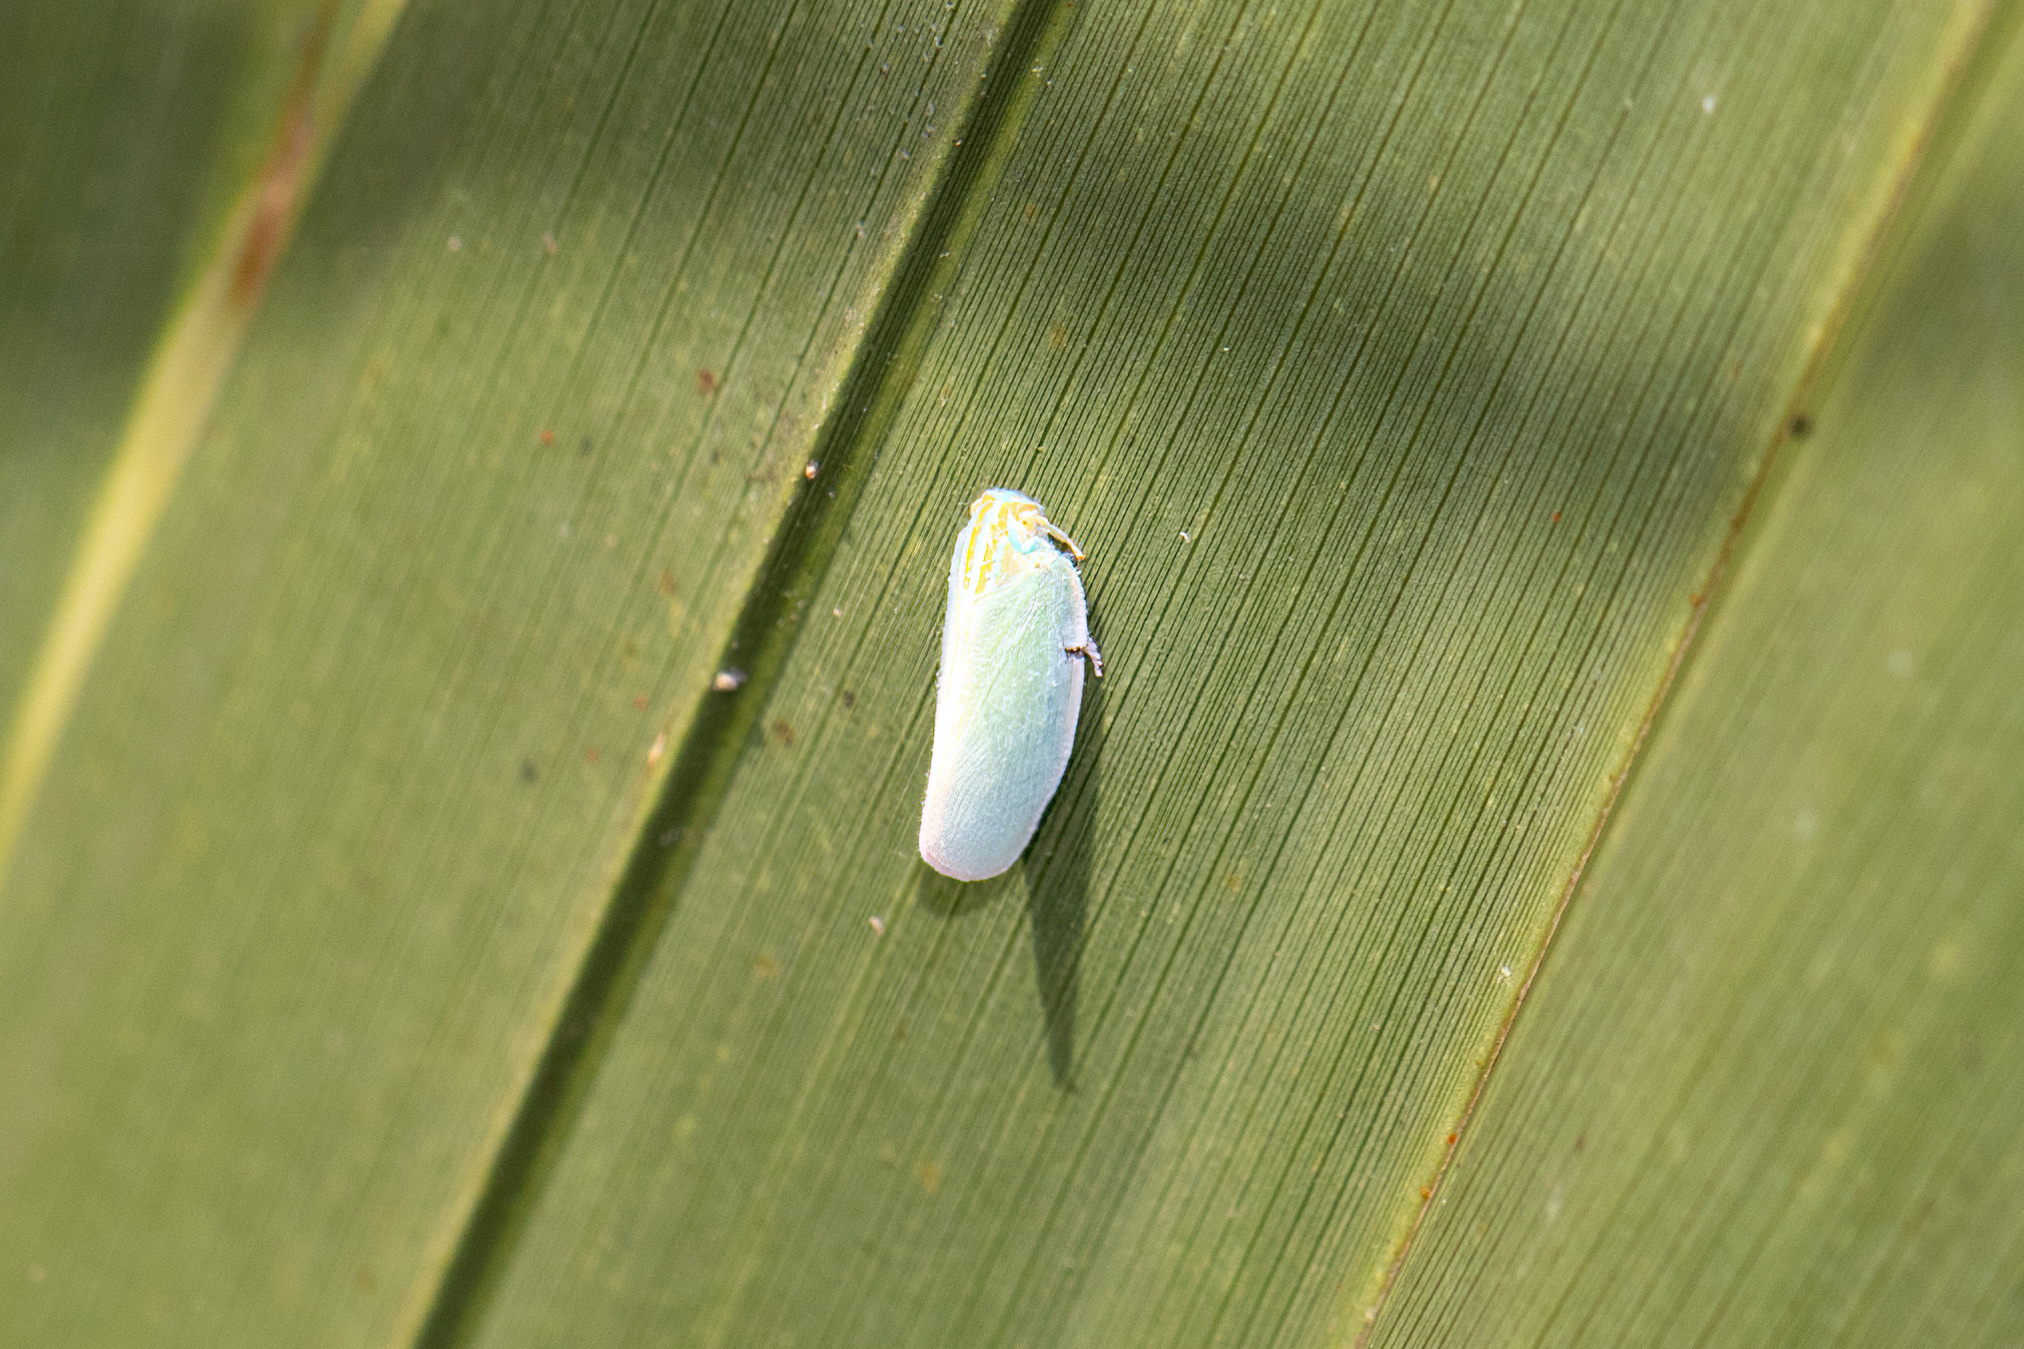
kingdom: Animalia
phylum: Arthropoda
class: Insecta
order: Hemiptera
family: Flatidae
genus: Ormenaria
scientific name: Ormenaria rufifascia
